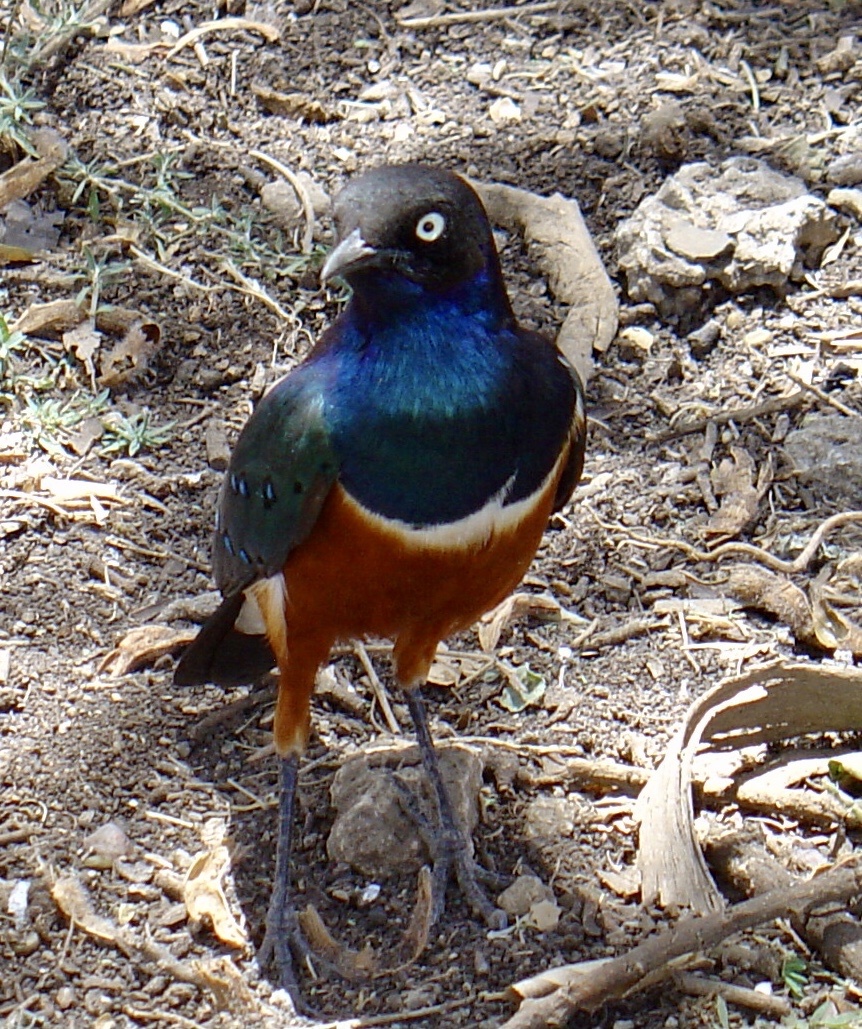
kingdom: Animalia
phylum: Chordata
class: Aves
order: Passeriformes
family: Sturnidae
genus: Lamprotornis
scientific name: Lamprotornis superbus
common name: Superb starling
